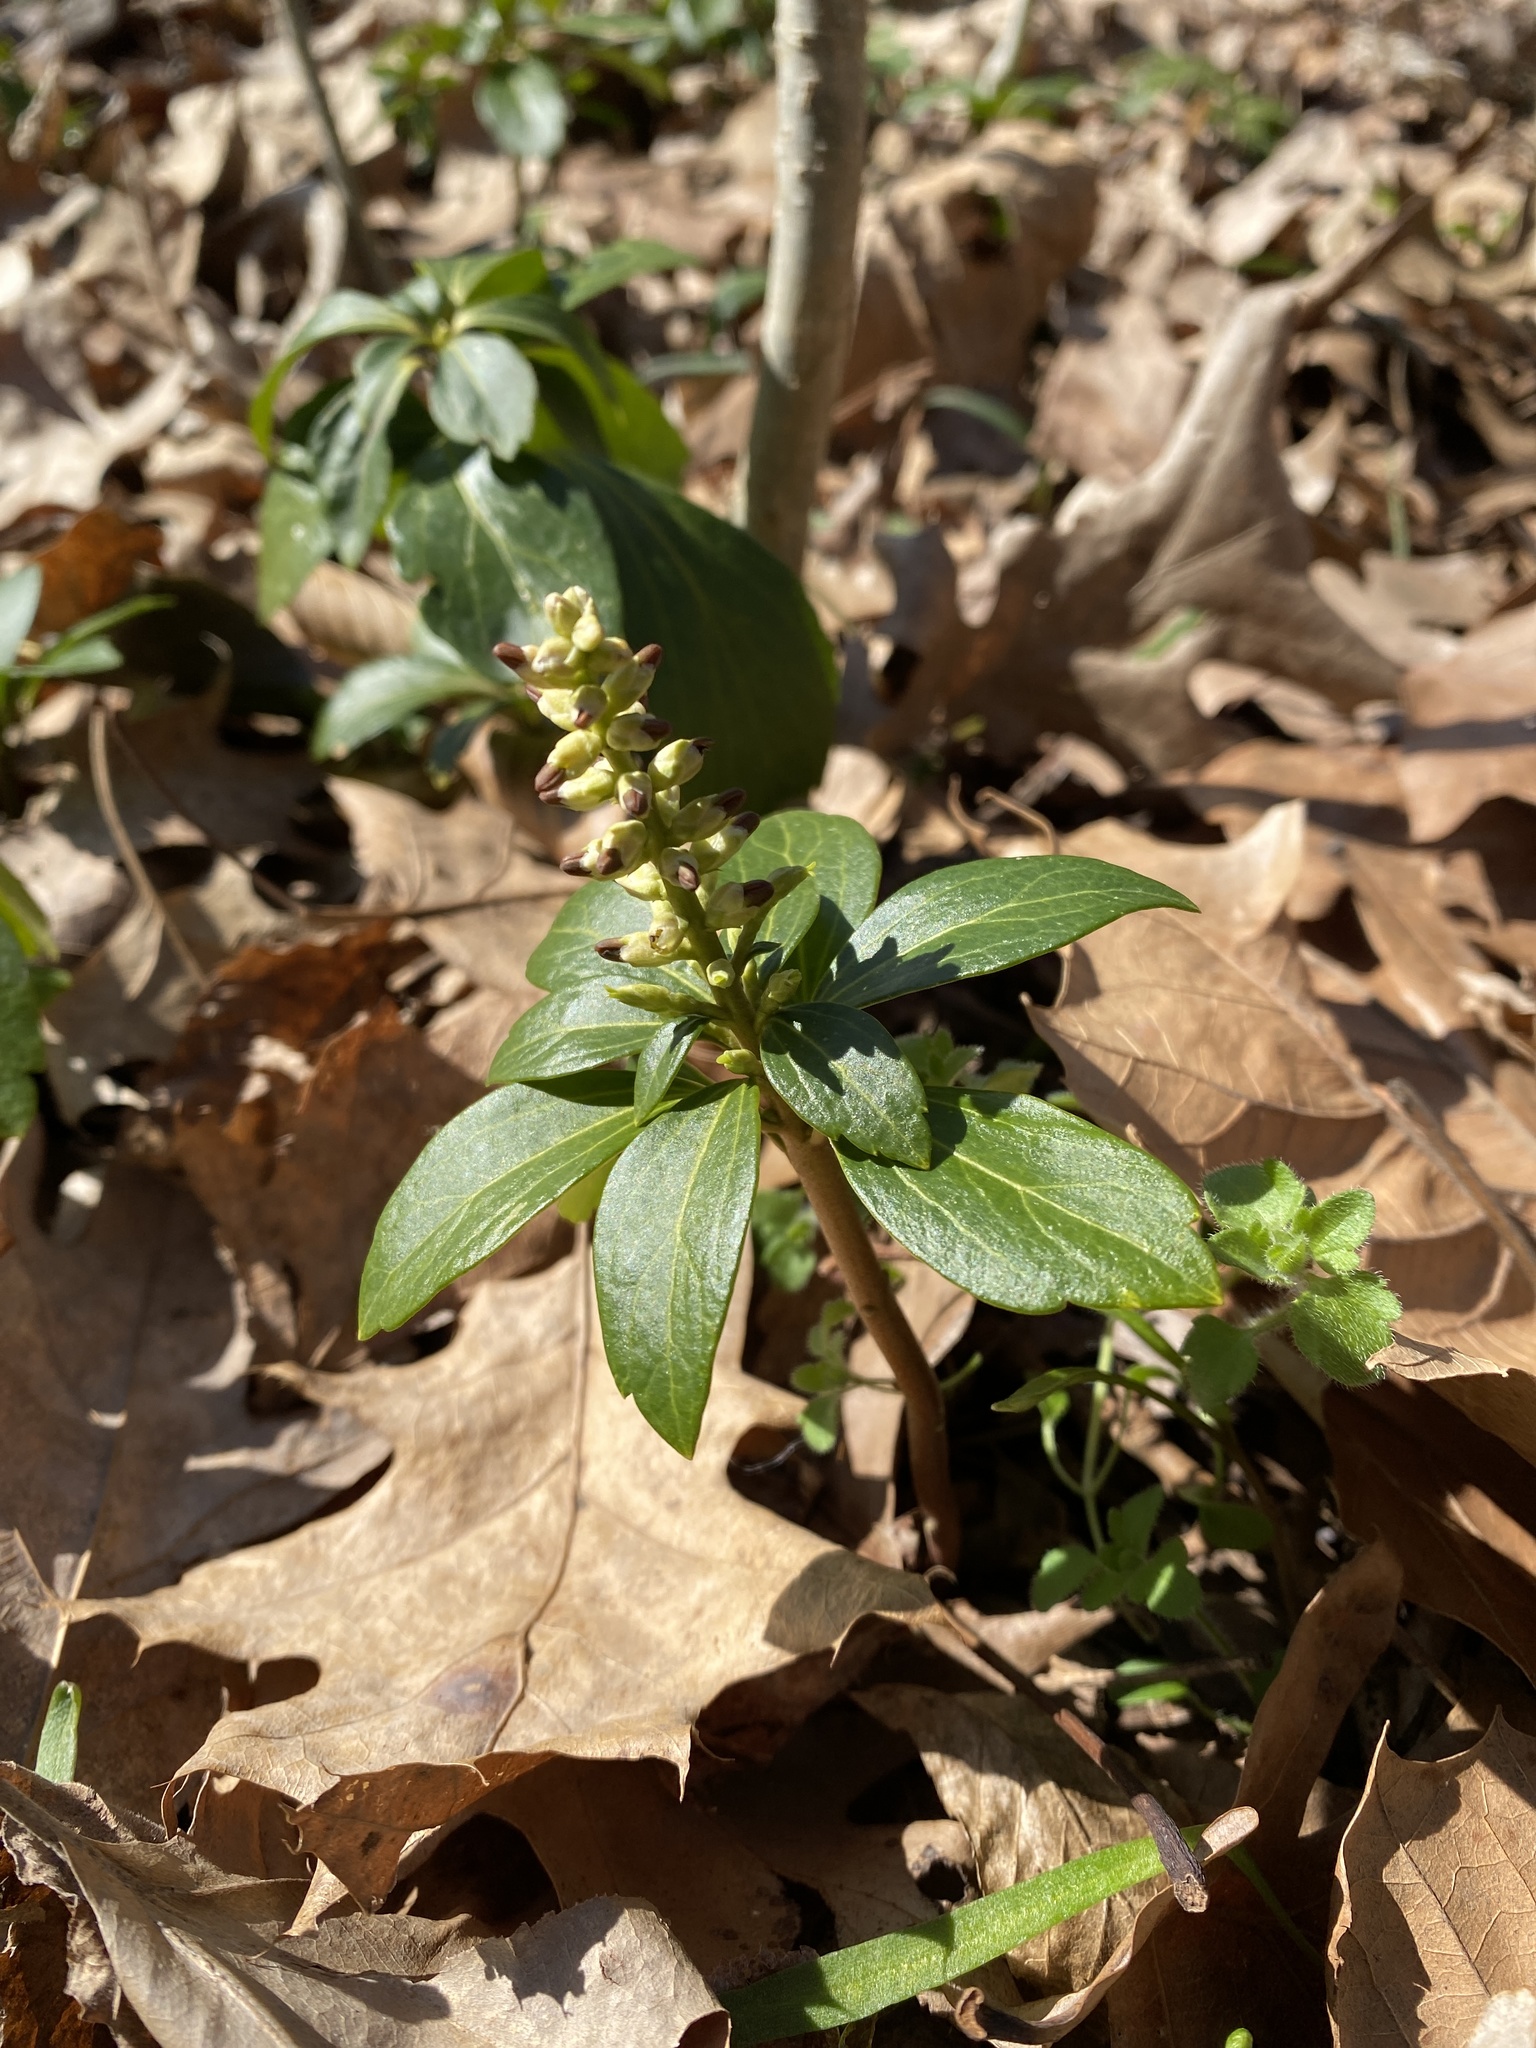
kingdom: Plantae
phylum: Tracheophyta
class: Magnoliopsida
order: Buxales
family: Buxaceae
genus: Pachysandra
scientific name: Pachysandra terminalis
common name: Japanese pachysandra
